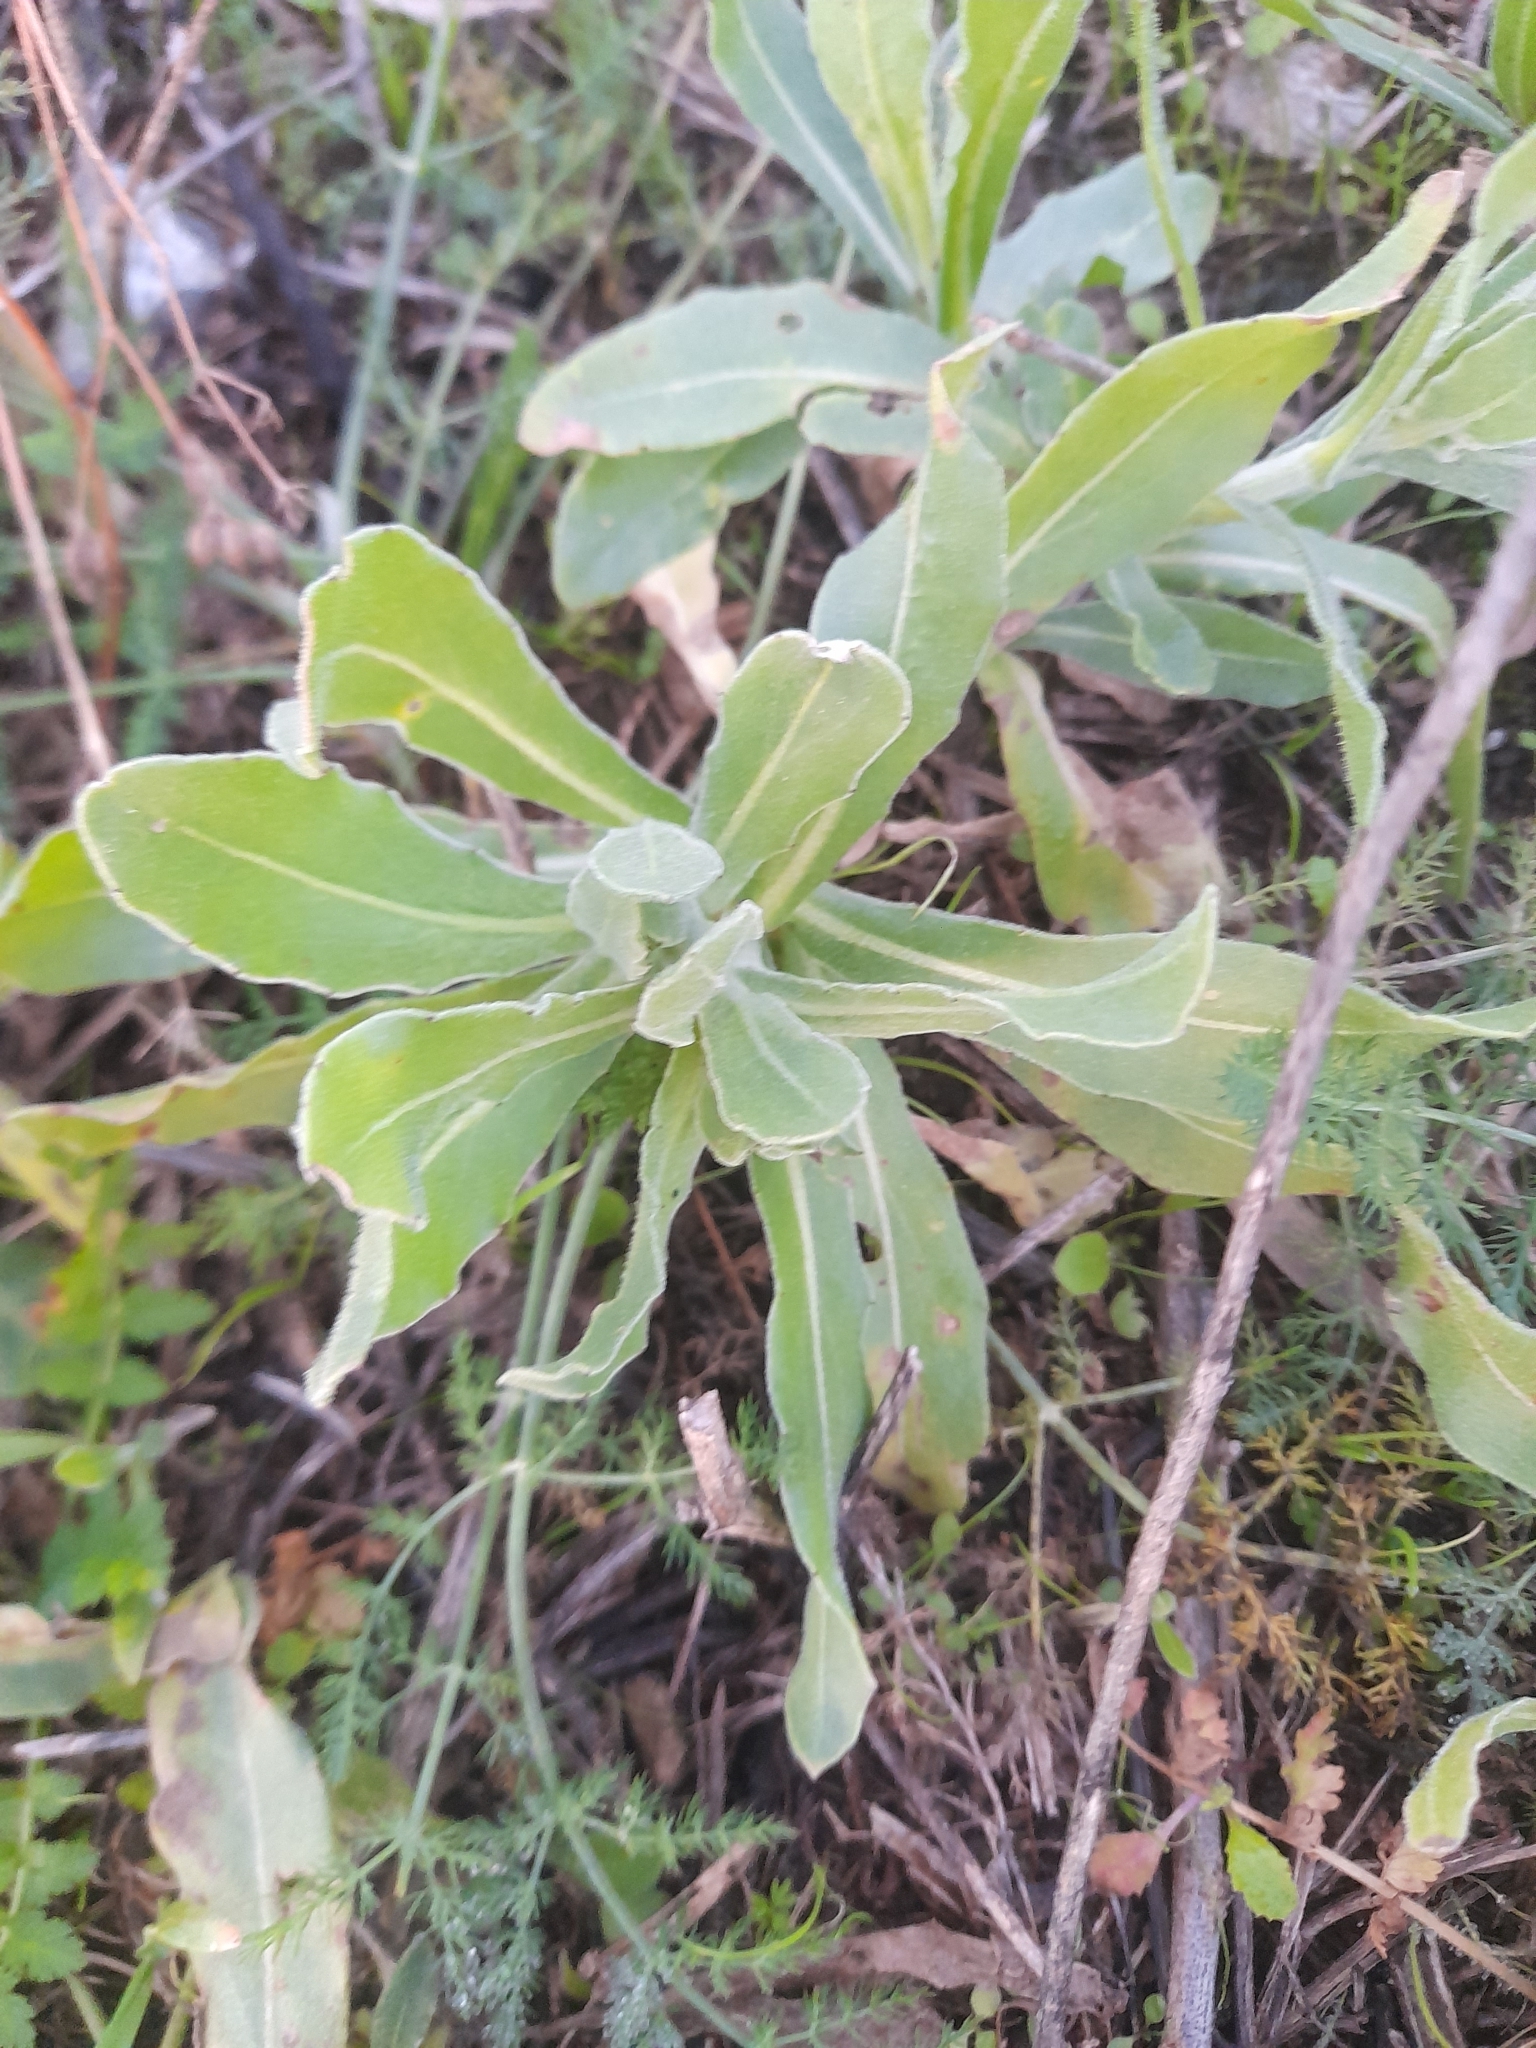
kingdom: Plantae
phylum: Tracheophyta
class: Magnoliopsida
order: Asterales
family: Asteraceae
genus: Calendula
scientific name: Calendula arvensis
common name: Field marigold
